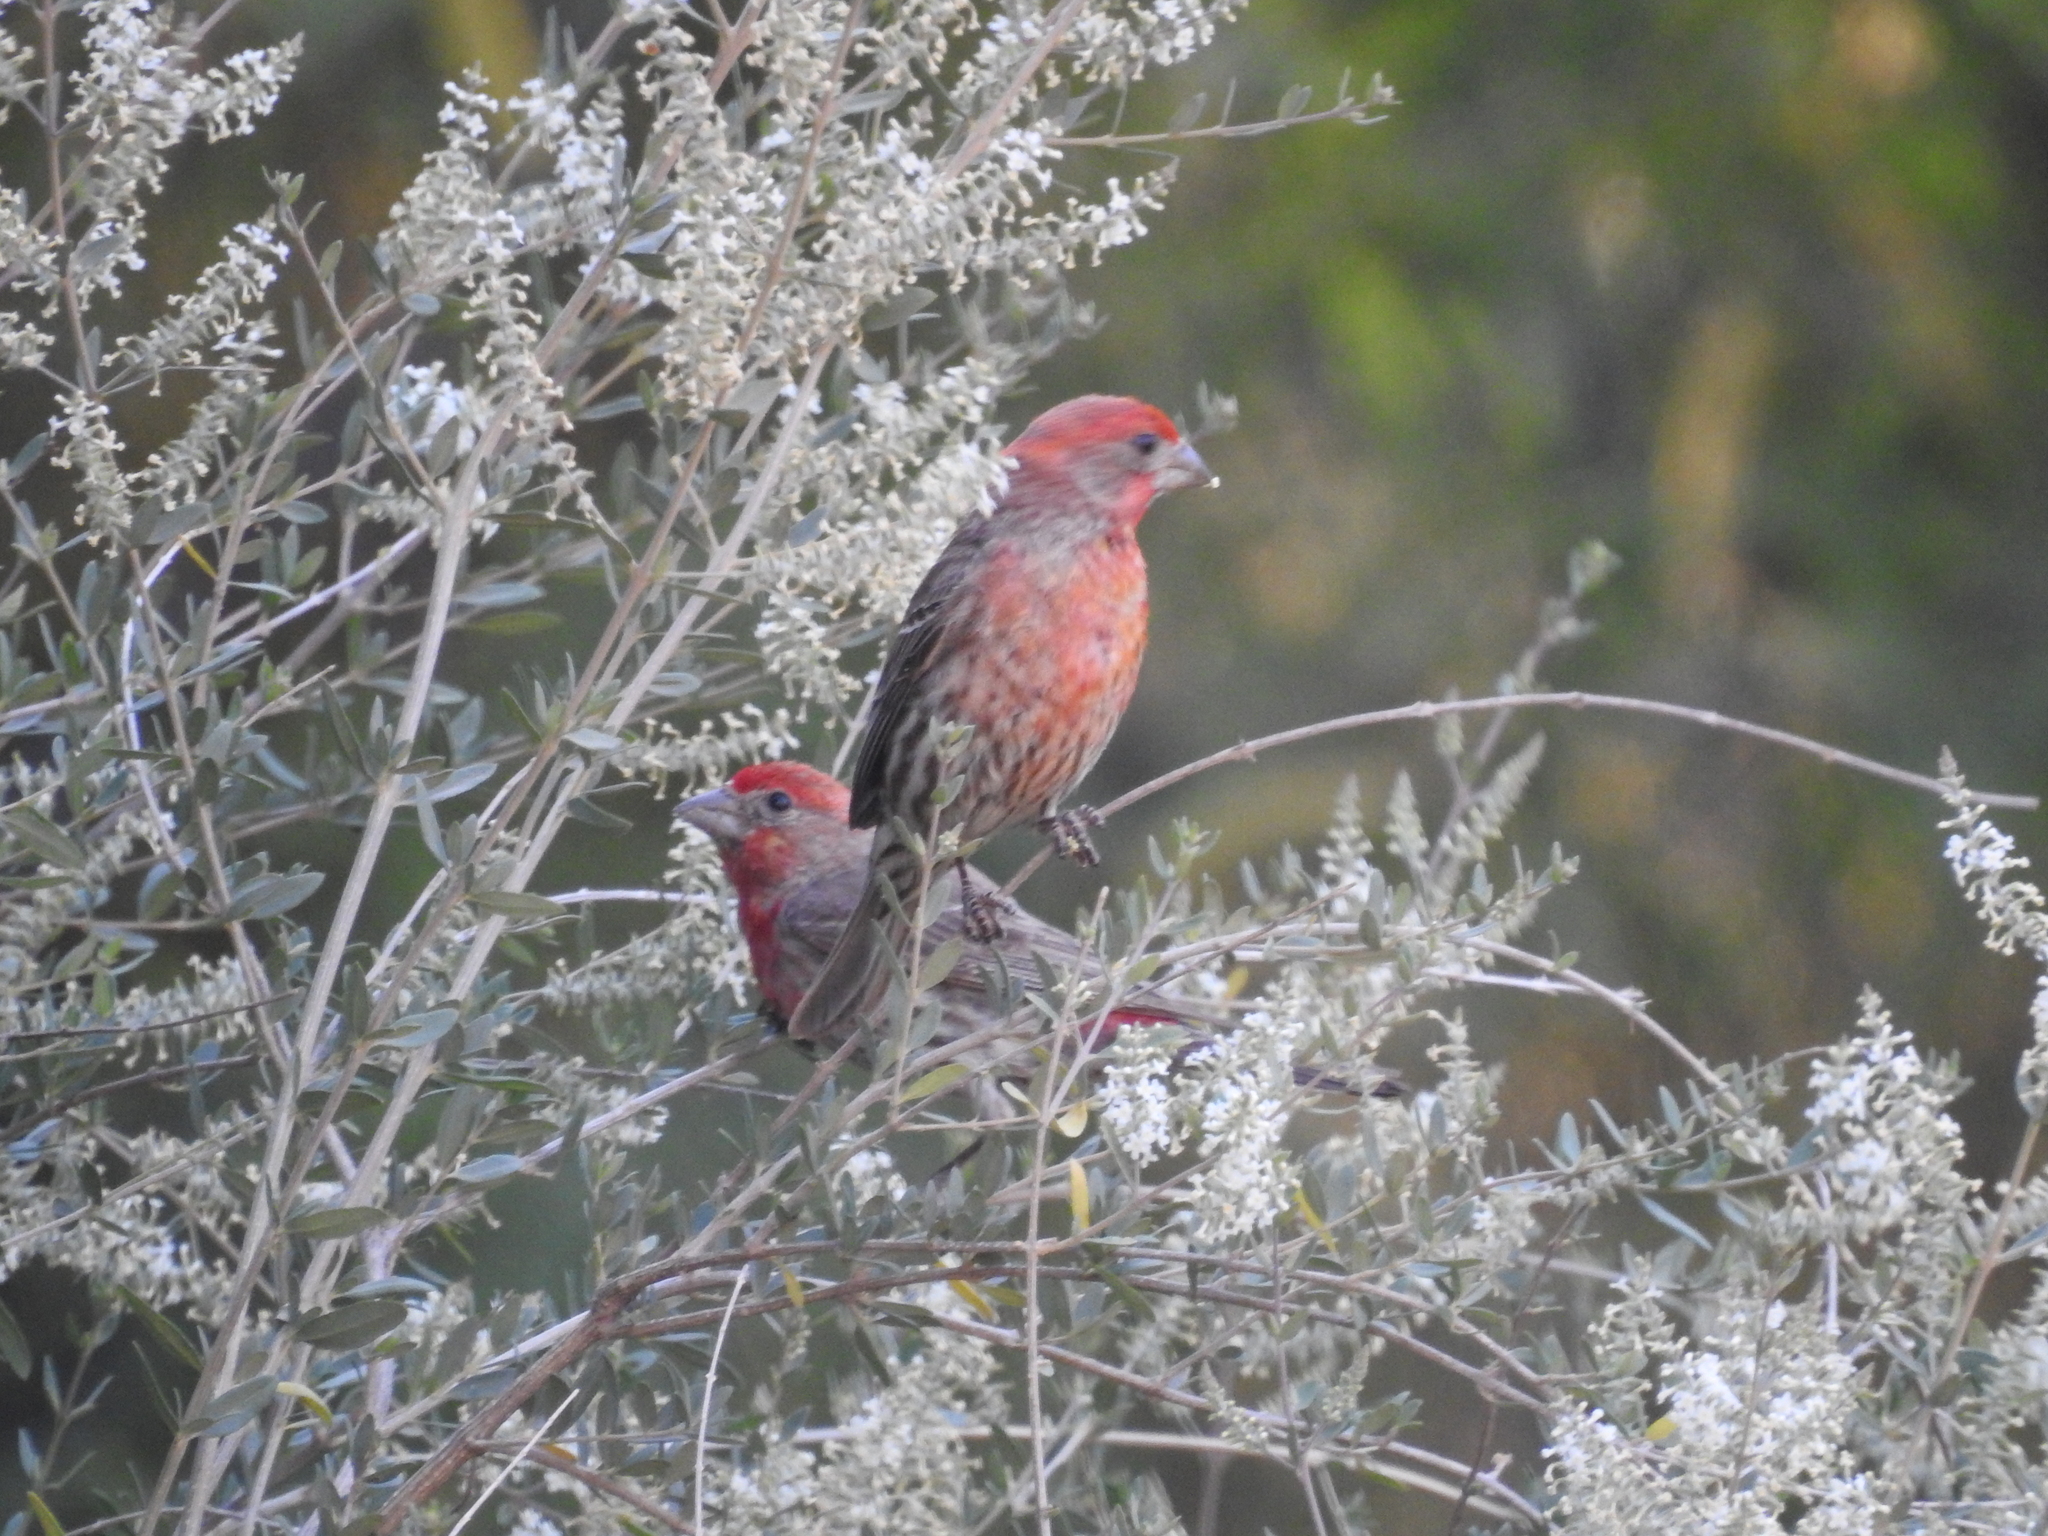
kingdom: Animalia
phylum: Chordata
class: Aves
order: Passeriformes
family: Fringillidae
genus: Haemorhous
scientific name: Haemorhous mexicanus
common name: House finch
